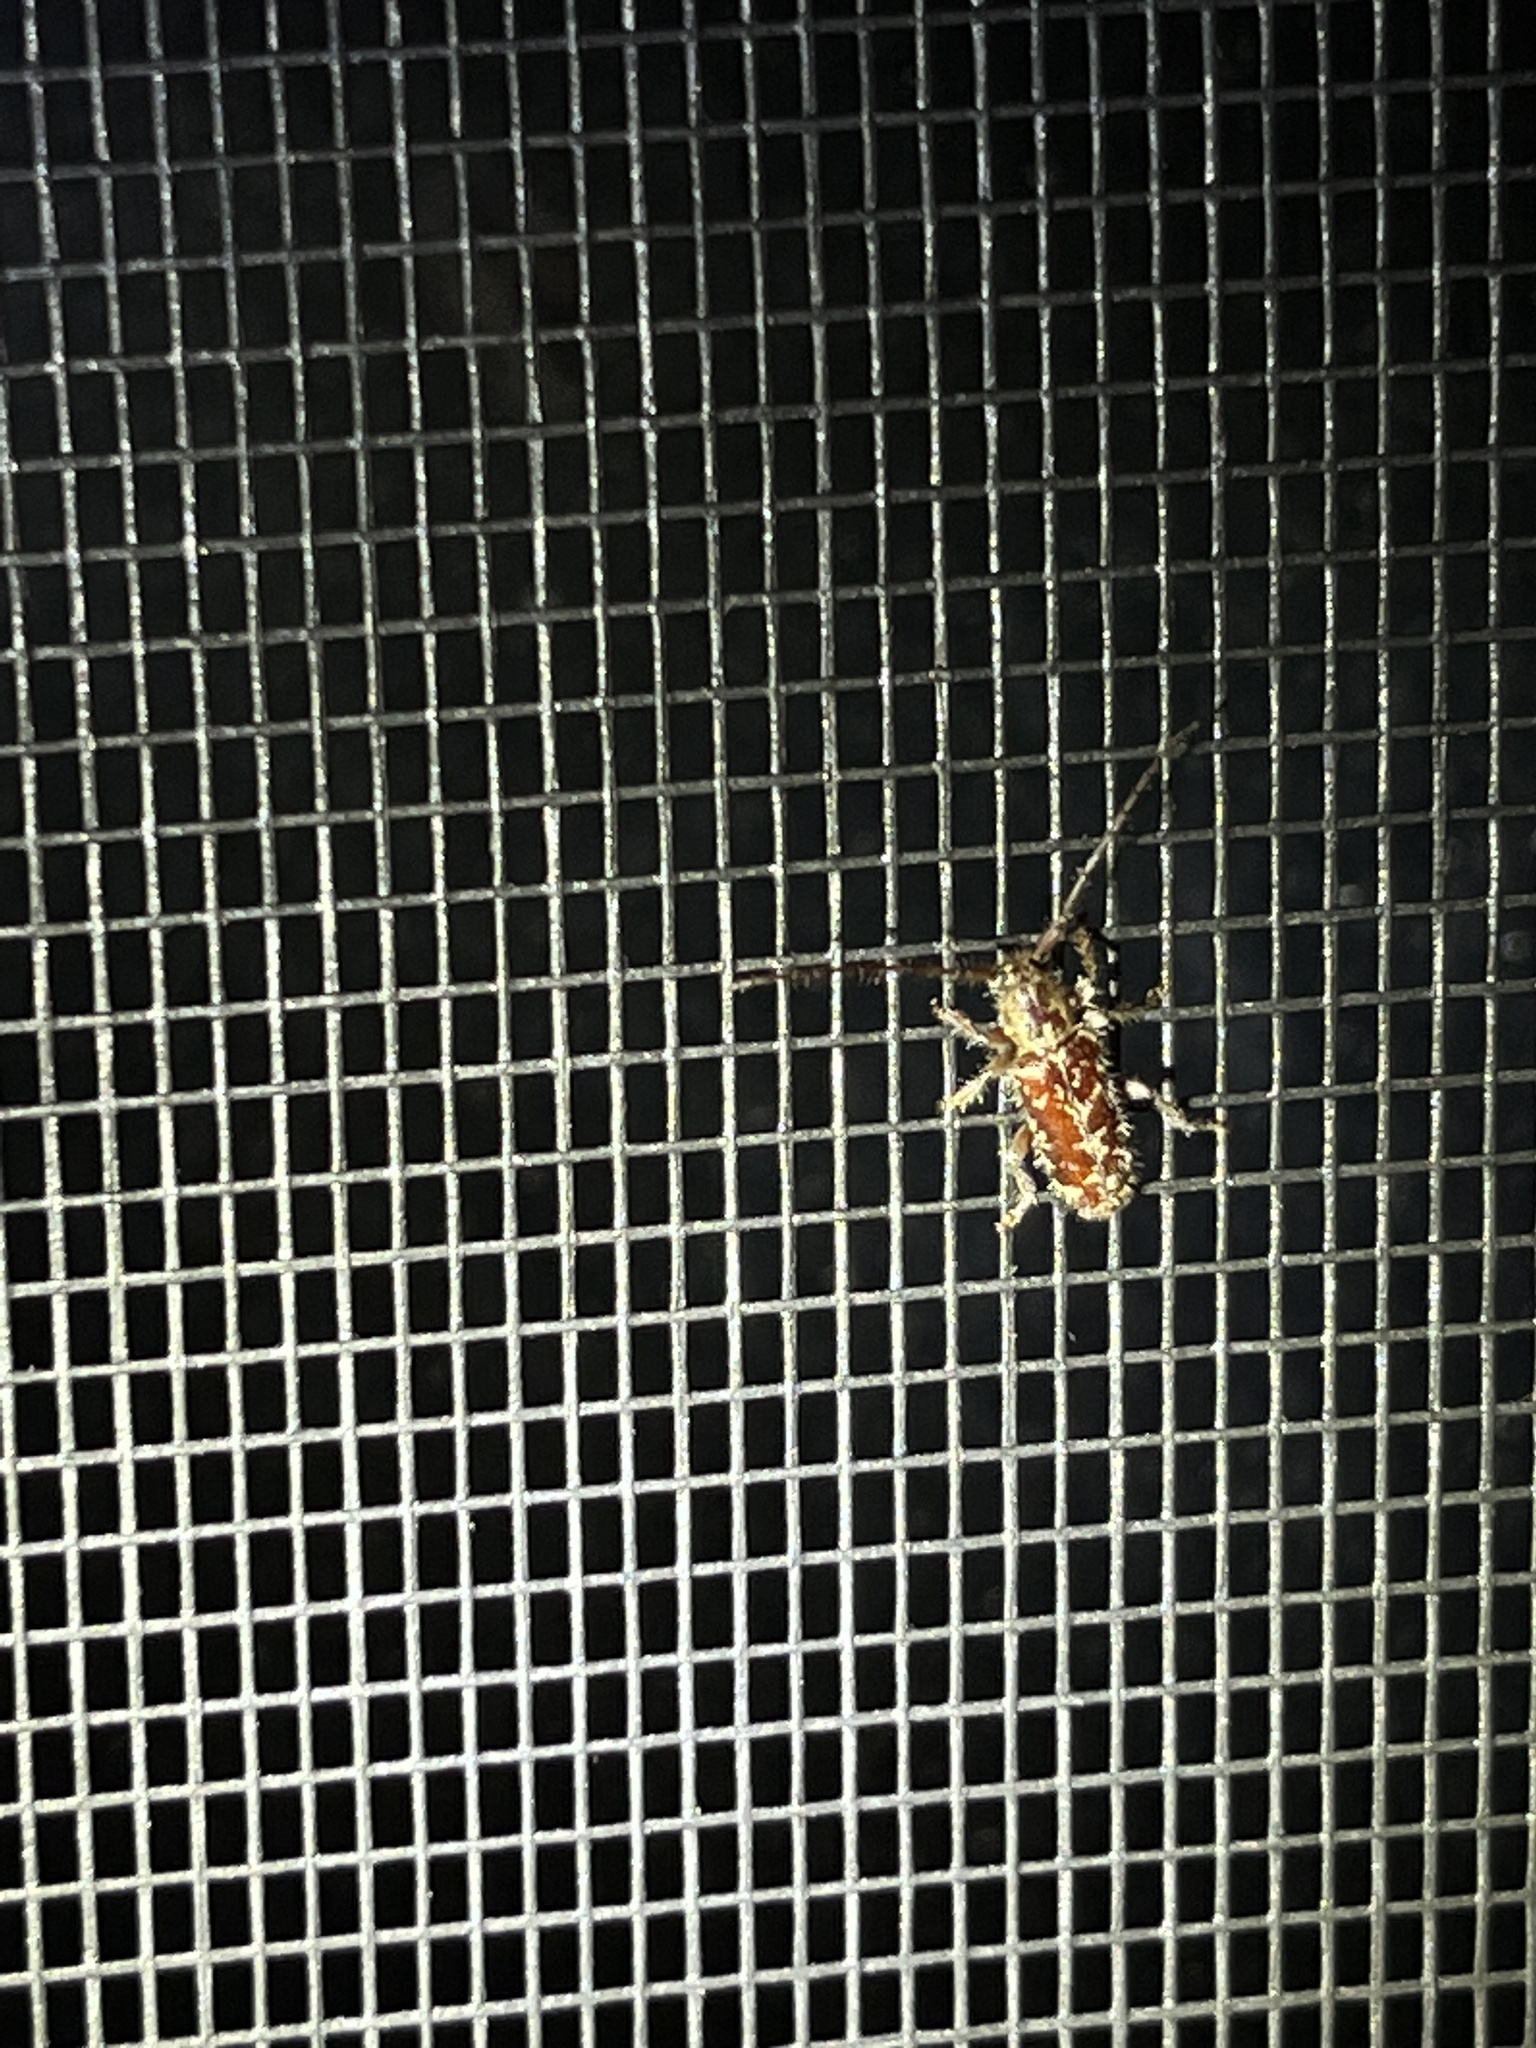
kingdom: Animalia
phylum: Arthropoda
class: Insecta
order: Coleoptera
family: Cerambycidae
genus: Eupogonius
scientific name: Eupogonius tomentosus
